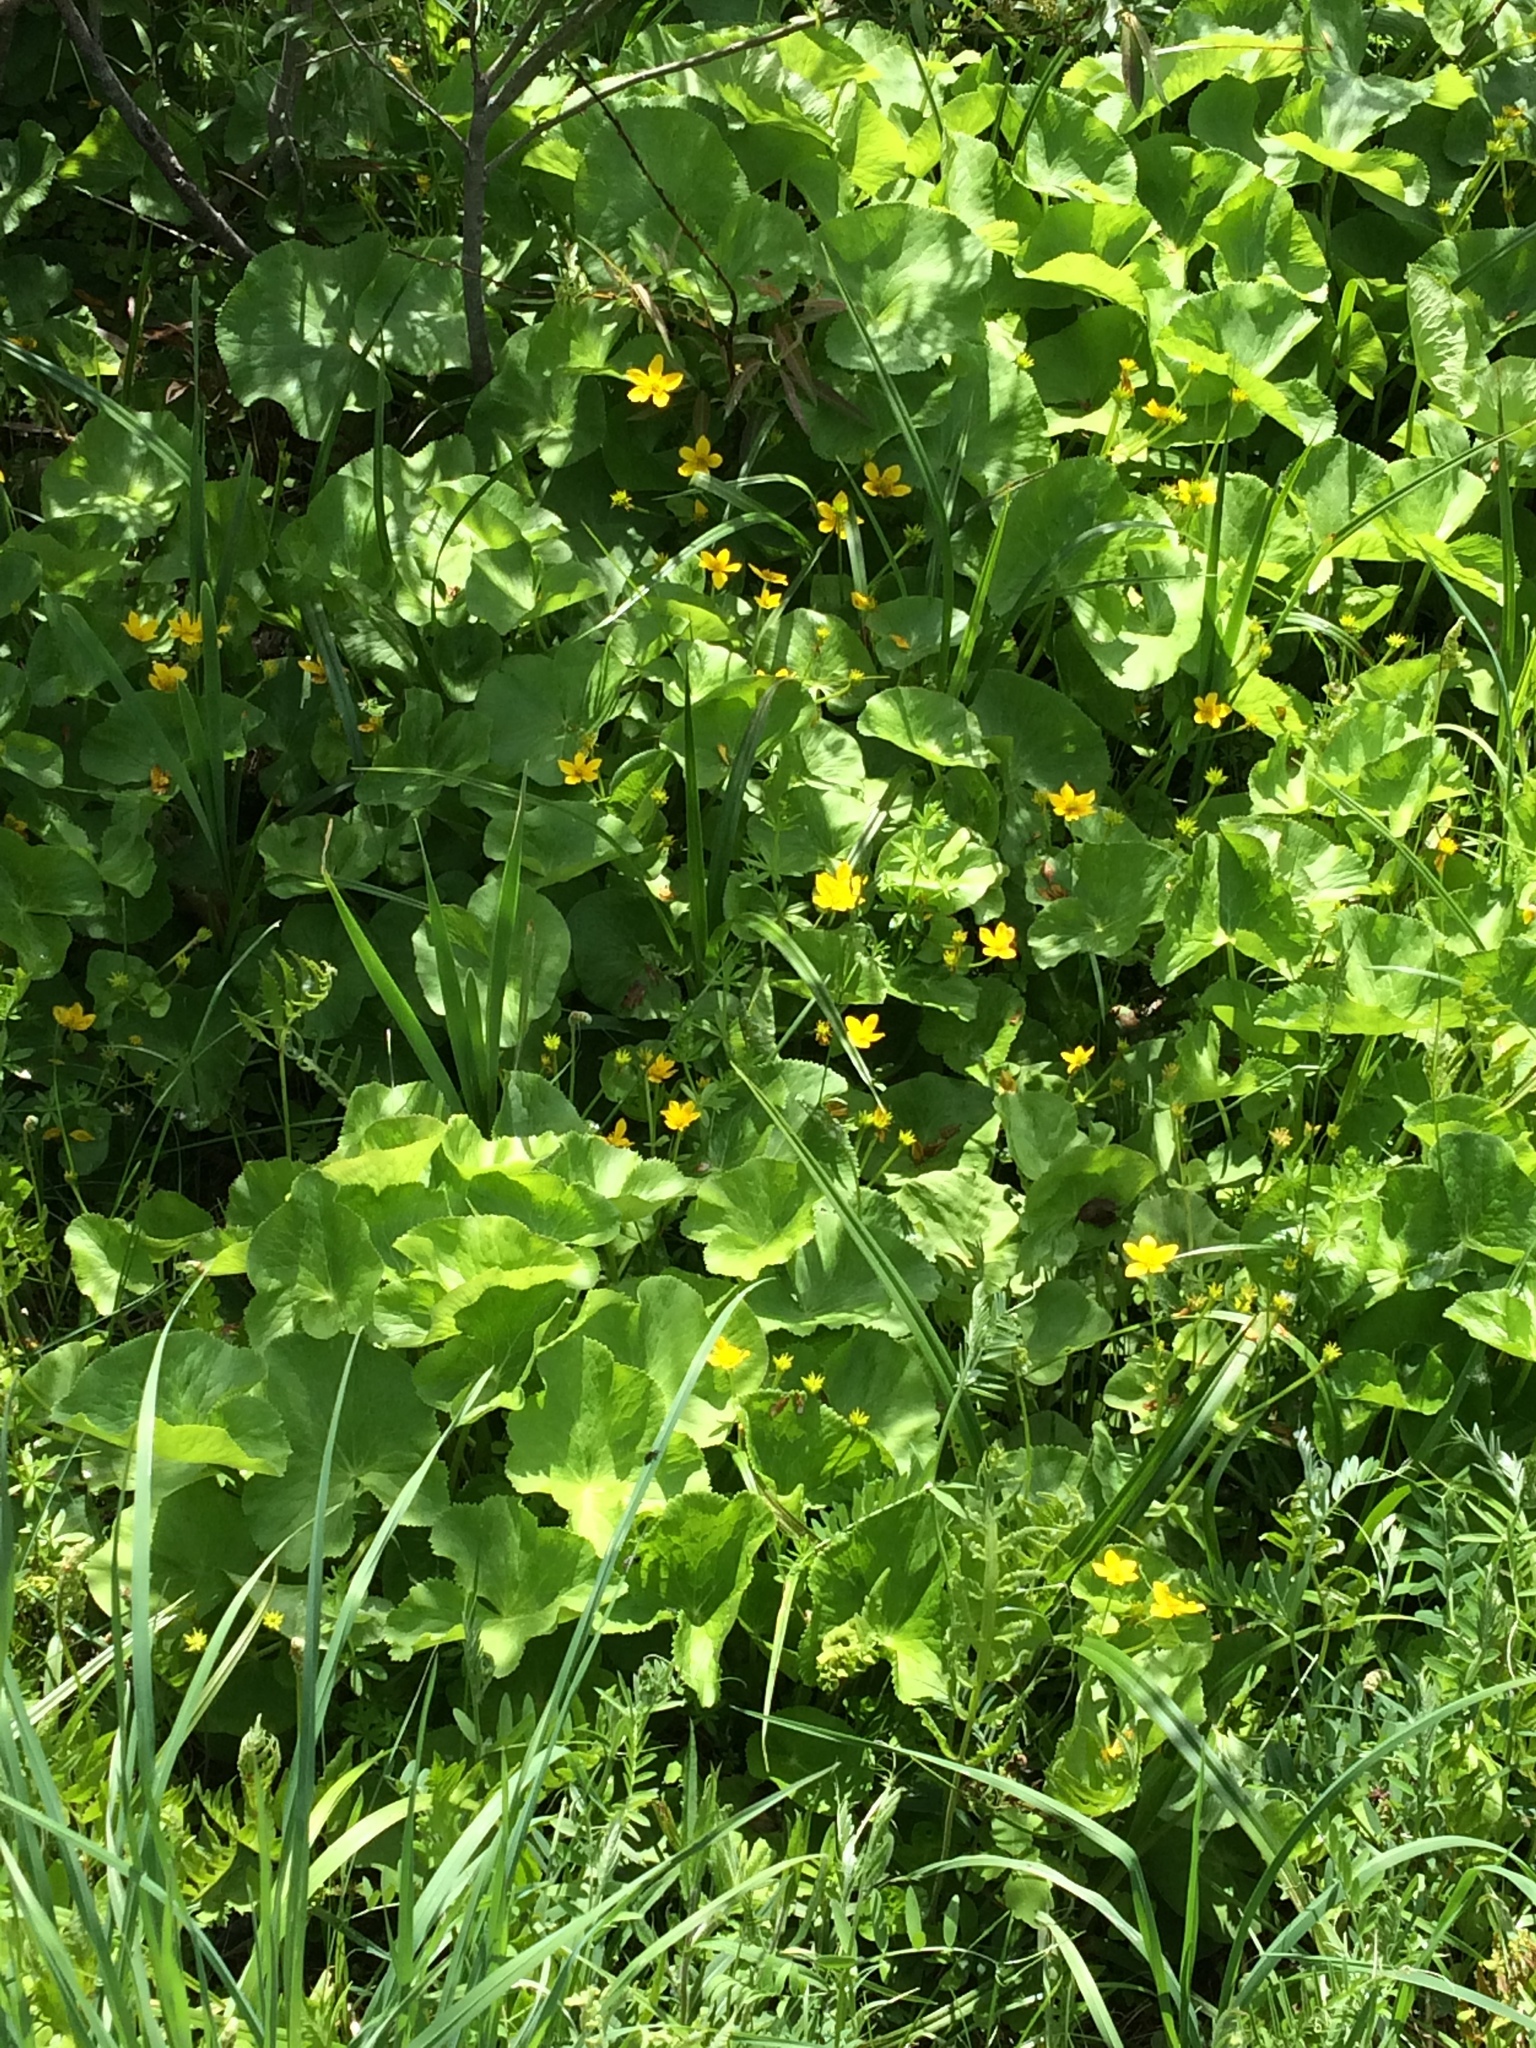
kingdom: Plantae
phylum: Tracheophyta
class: Magnoliopsida
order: Ranunculales
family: Ranunculaceae
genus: Caltha
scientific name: Caltha palustris
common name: Marsh marigold
